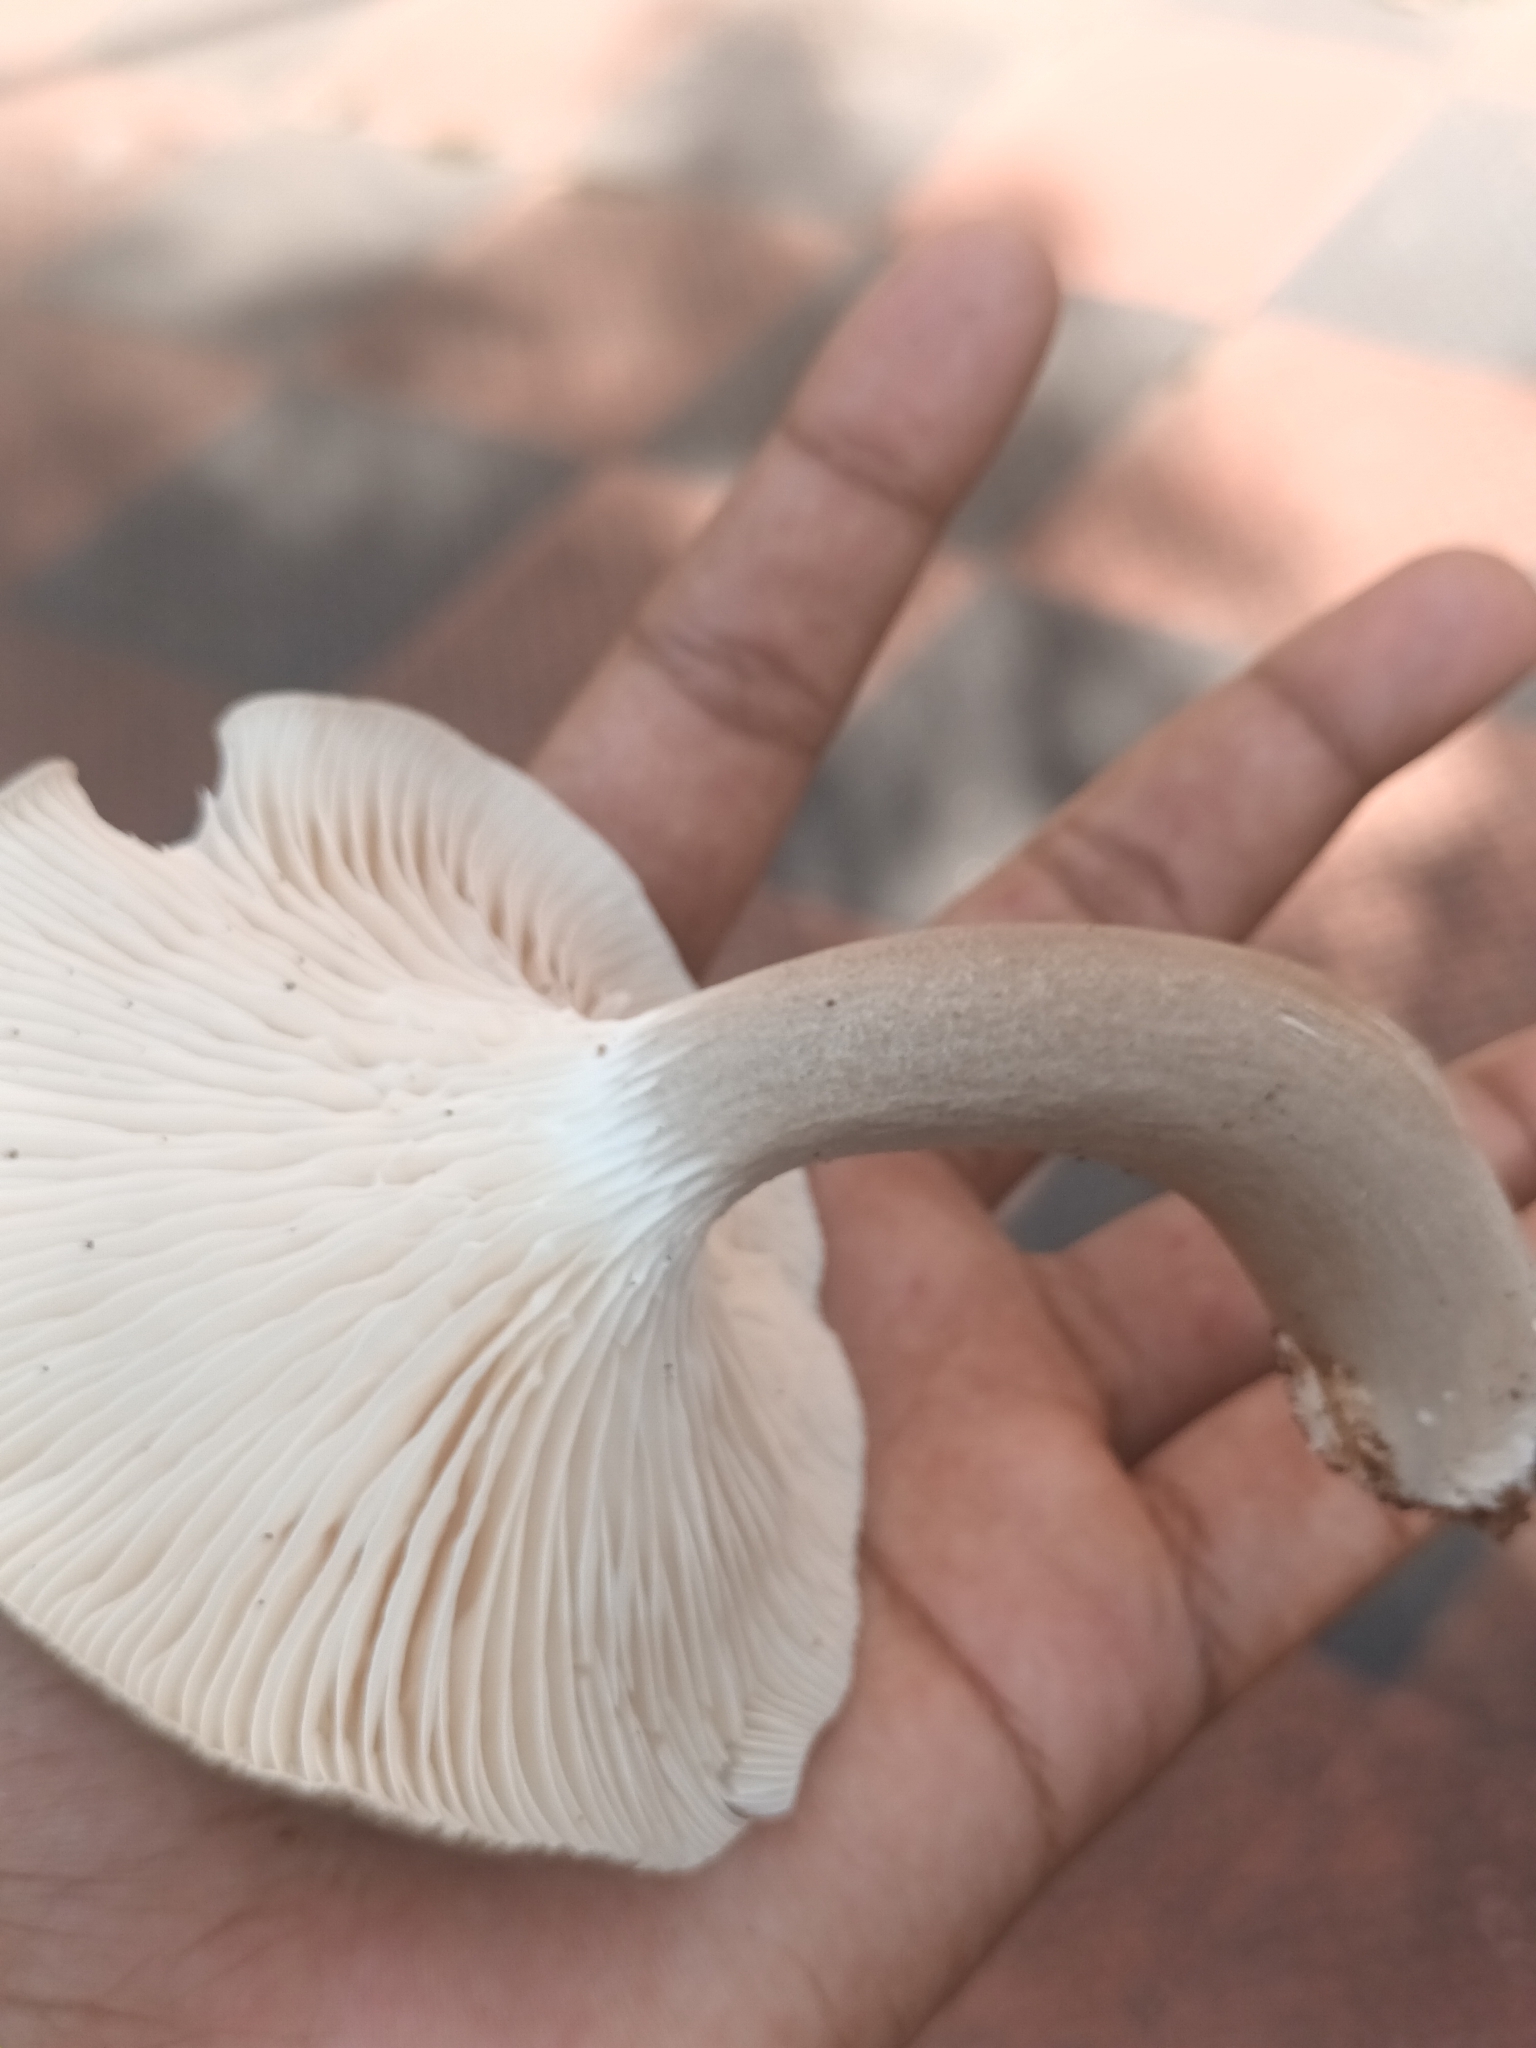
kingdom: Fungi
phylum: Basidiomycota
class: Agaricomycetes
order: Agaricales
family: Hygrophoraceae
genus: Cantharocybe
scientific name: Cantharocybe virosa
